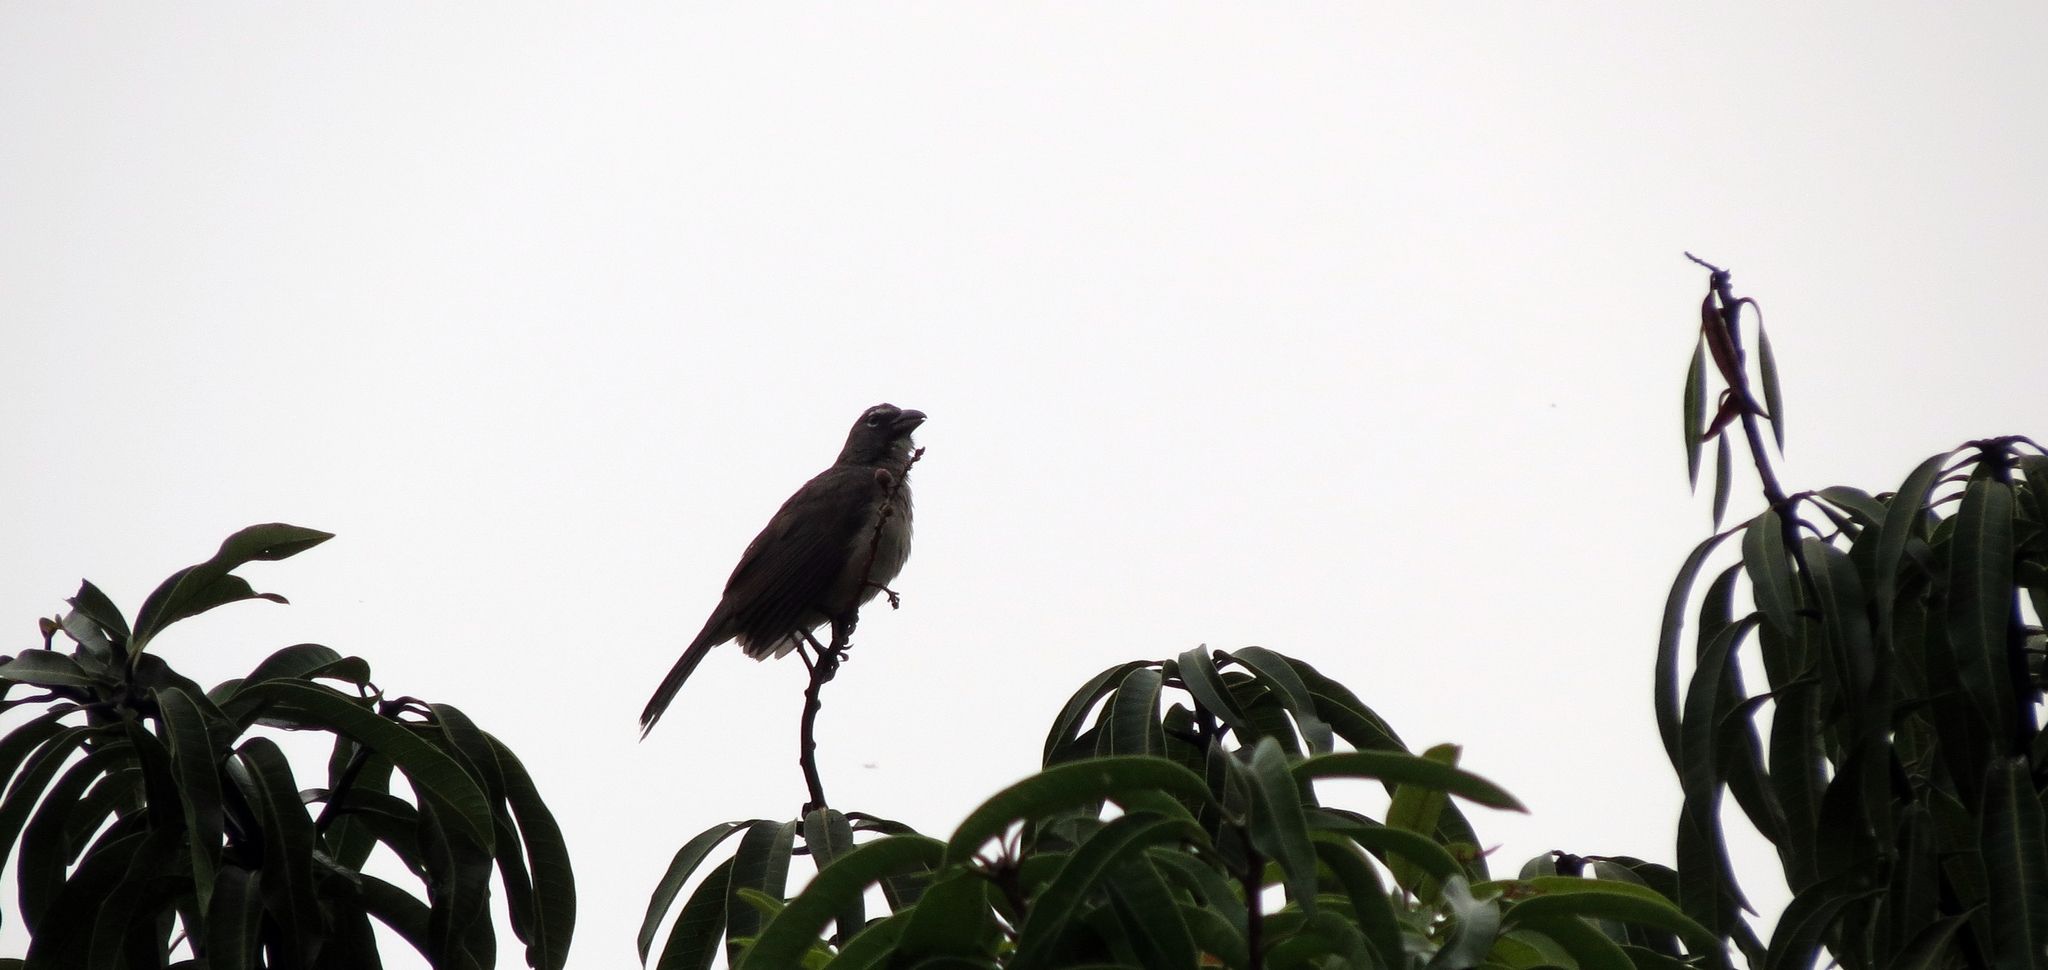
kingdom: Animalia
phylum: Chordata
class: Aves
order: Passeriformes
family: Thraupidae
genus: Saltator
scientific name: Saltator olivascens
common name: Caribbean grey saltator
